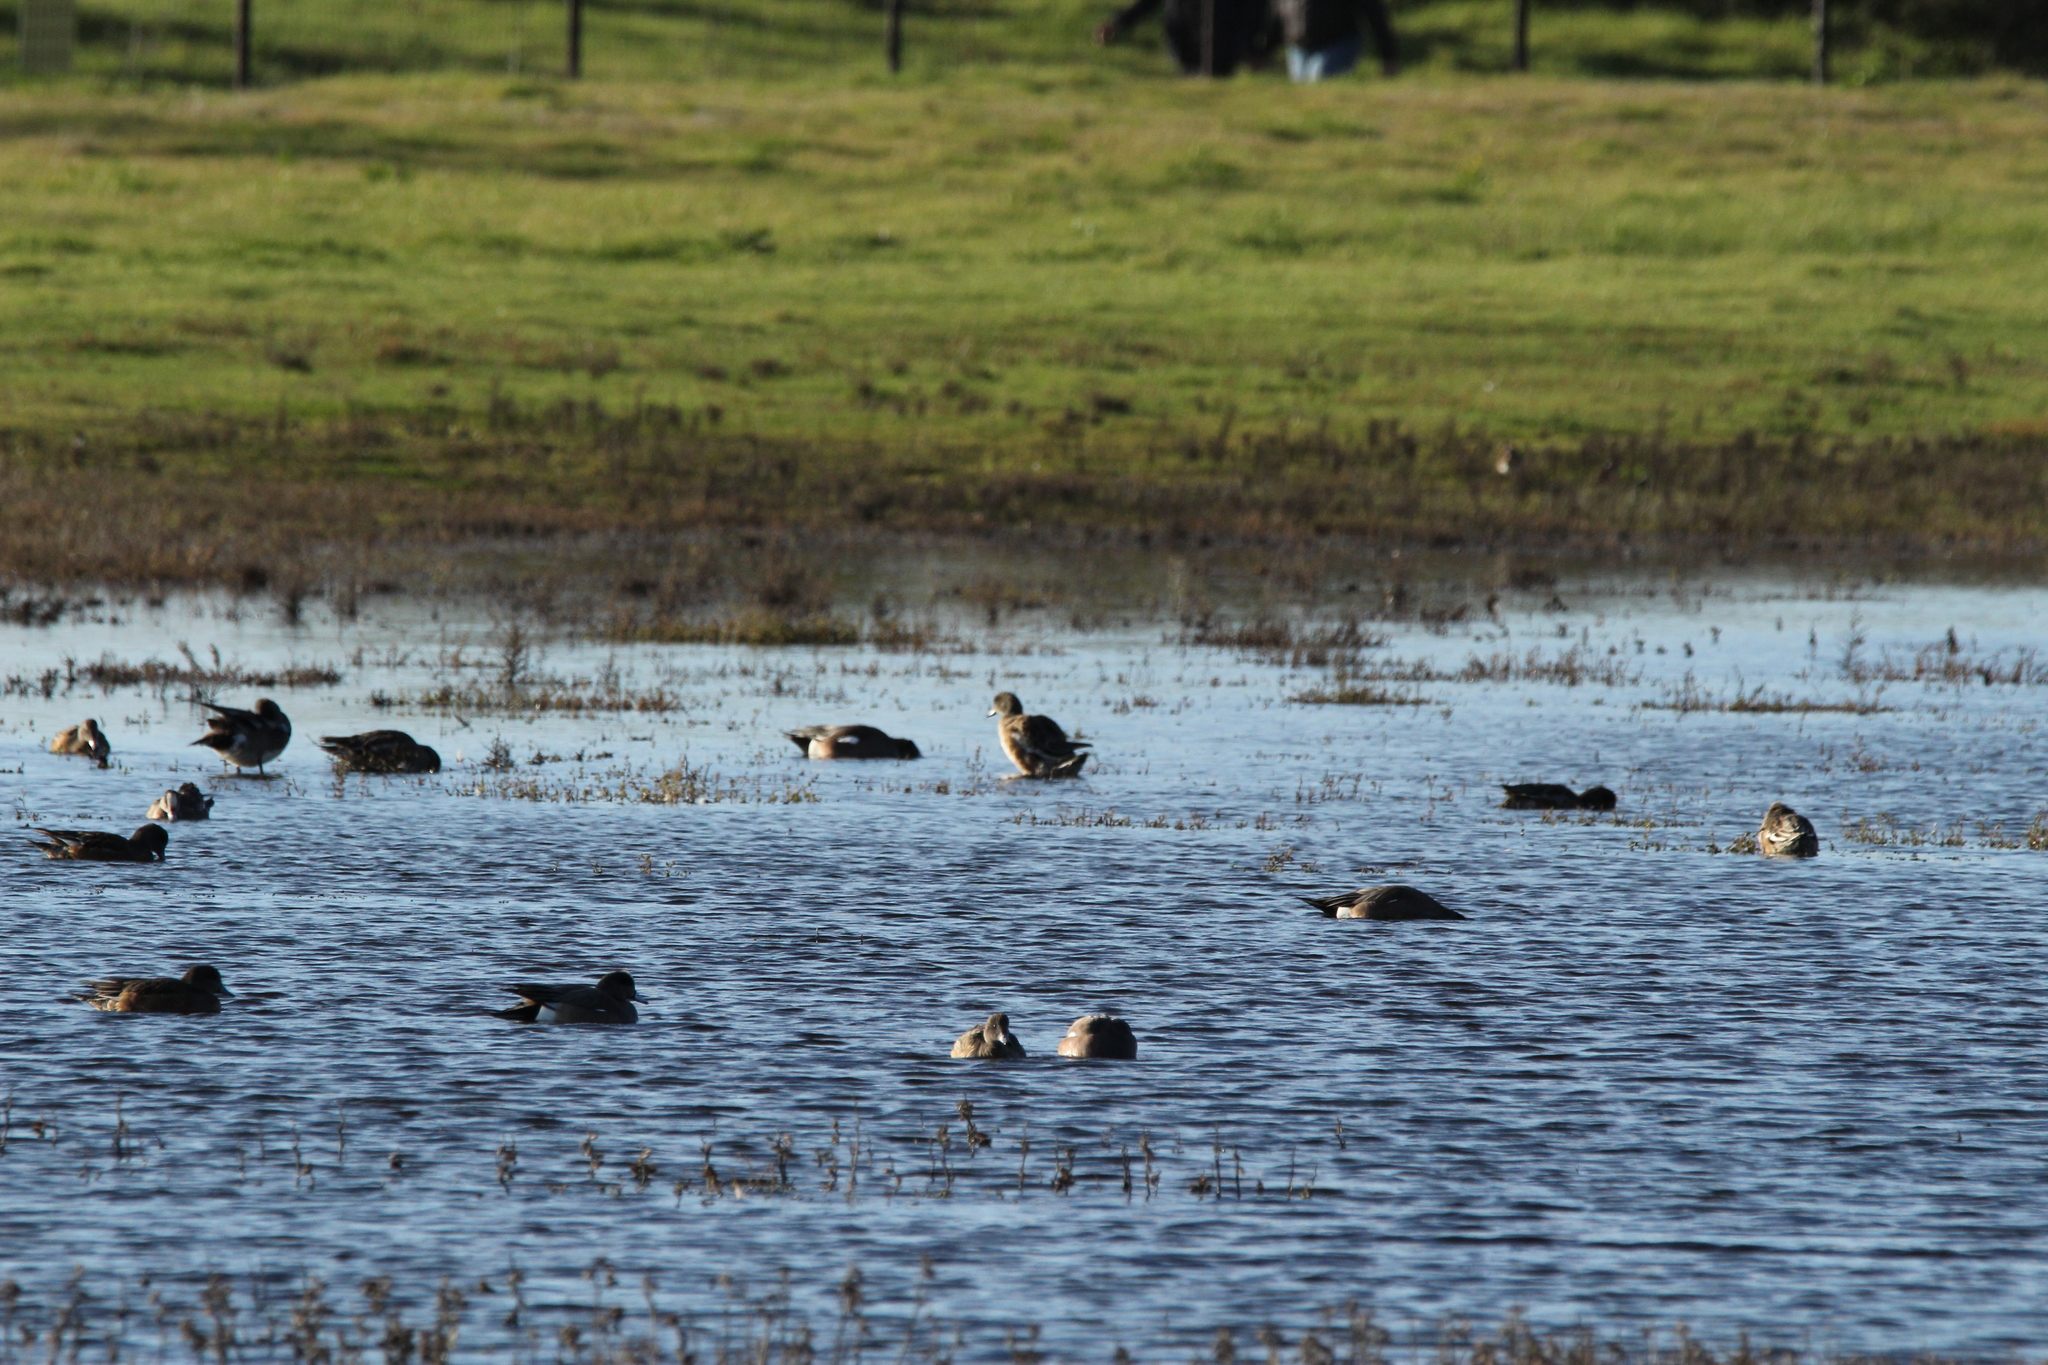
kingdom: Animalia
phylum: Chordata
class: Aves
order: Anseriformes
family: Anatidae
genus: Mareca
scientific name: Mareca americana
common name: American wigeon
